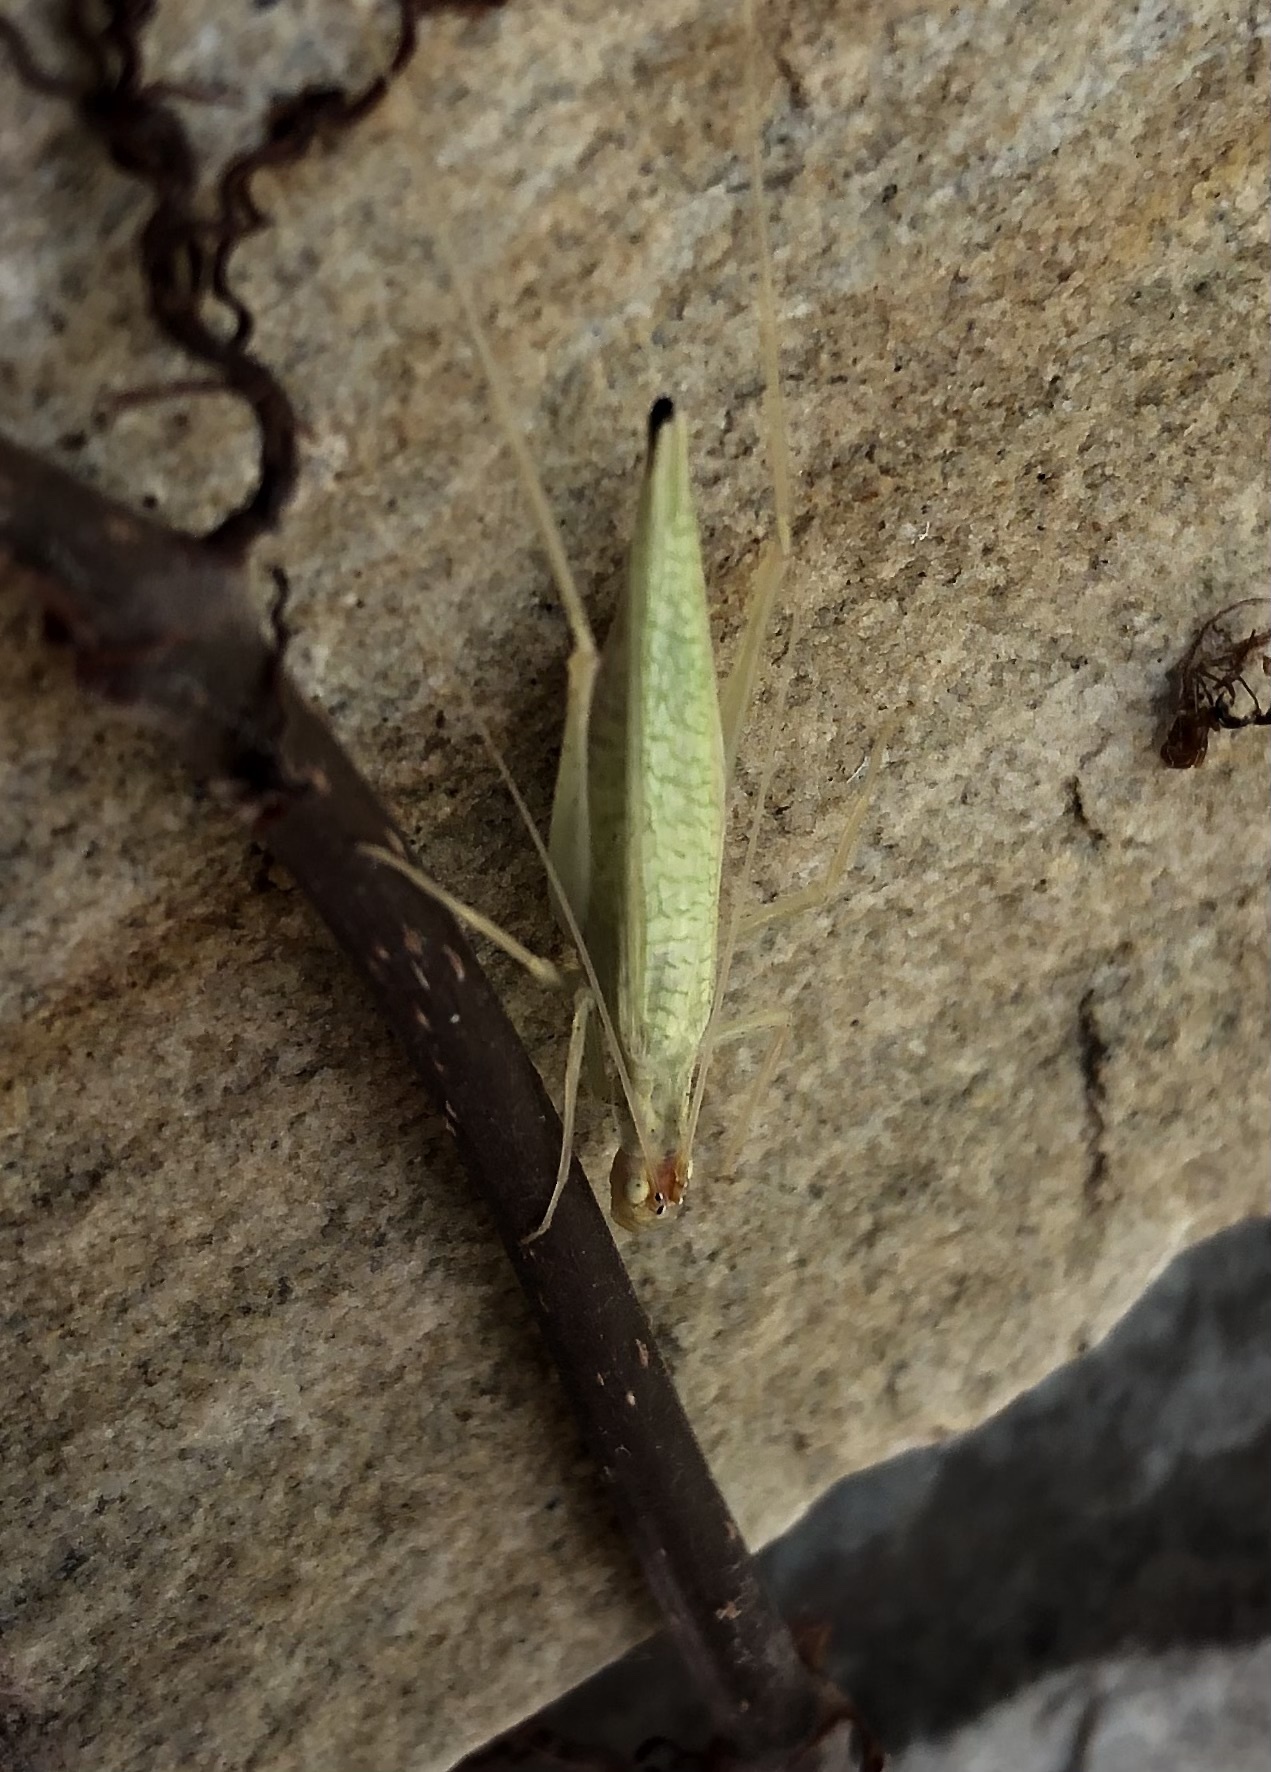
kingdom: Animalia
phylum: Arthropoda
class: Insecta
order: Orthoptera
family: Gryllidae
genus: Oecanthus
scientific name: Oecanthus niveus
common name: Narrow-winged tree cricket
